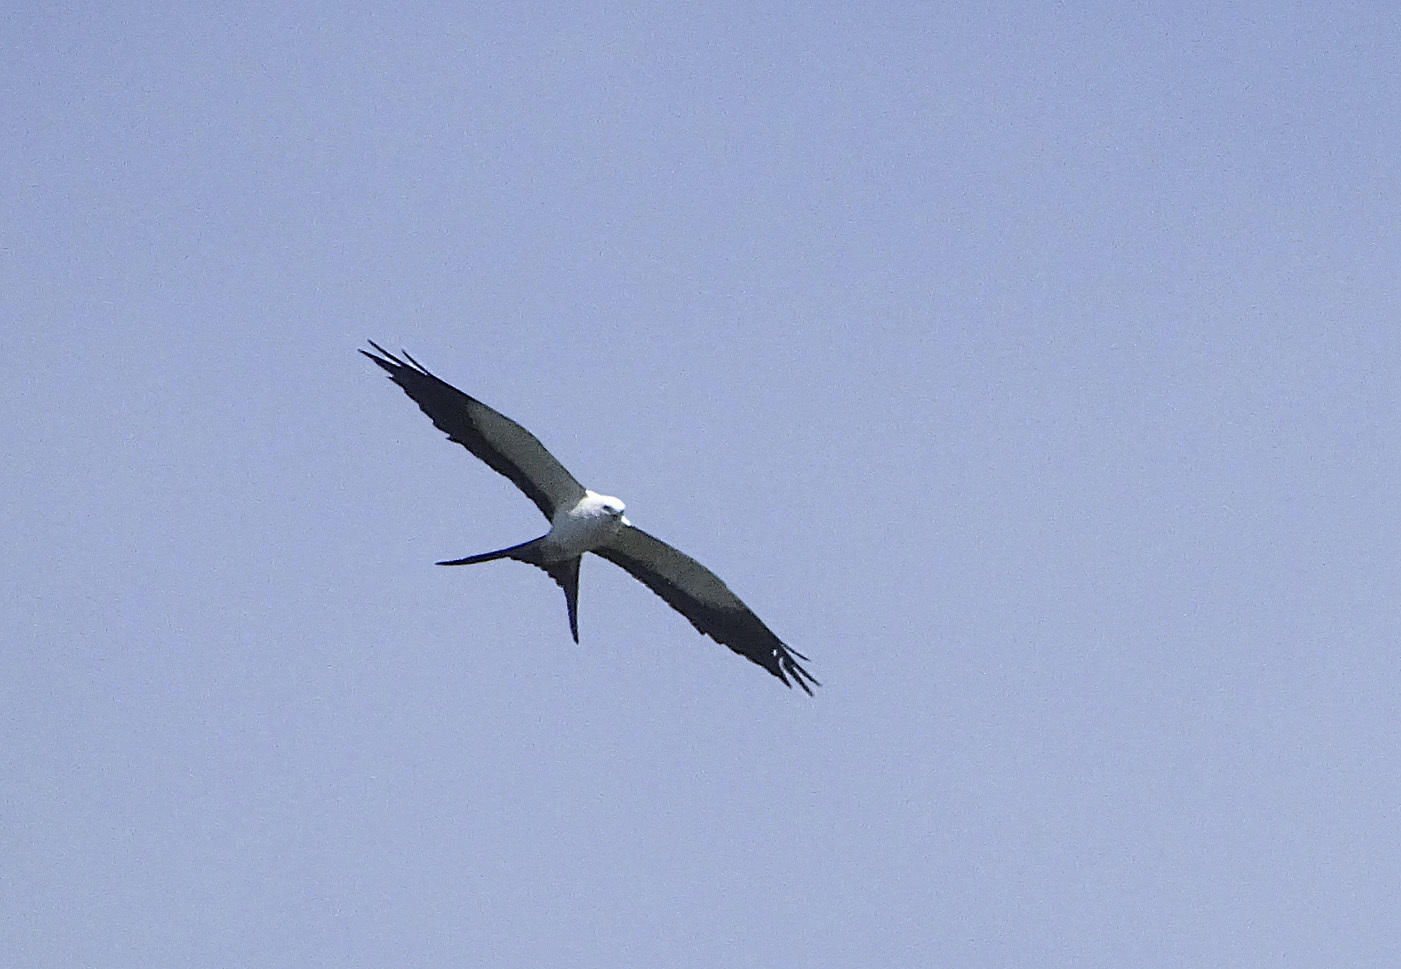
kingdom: Animalia
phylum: Chordata
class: Aves
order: Accipitriformes
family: Accipitridae
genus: Elanoides
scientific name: Elanoides forficatus
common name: Swallow-tailed kite
